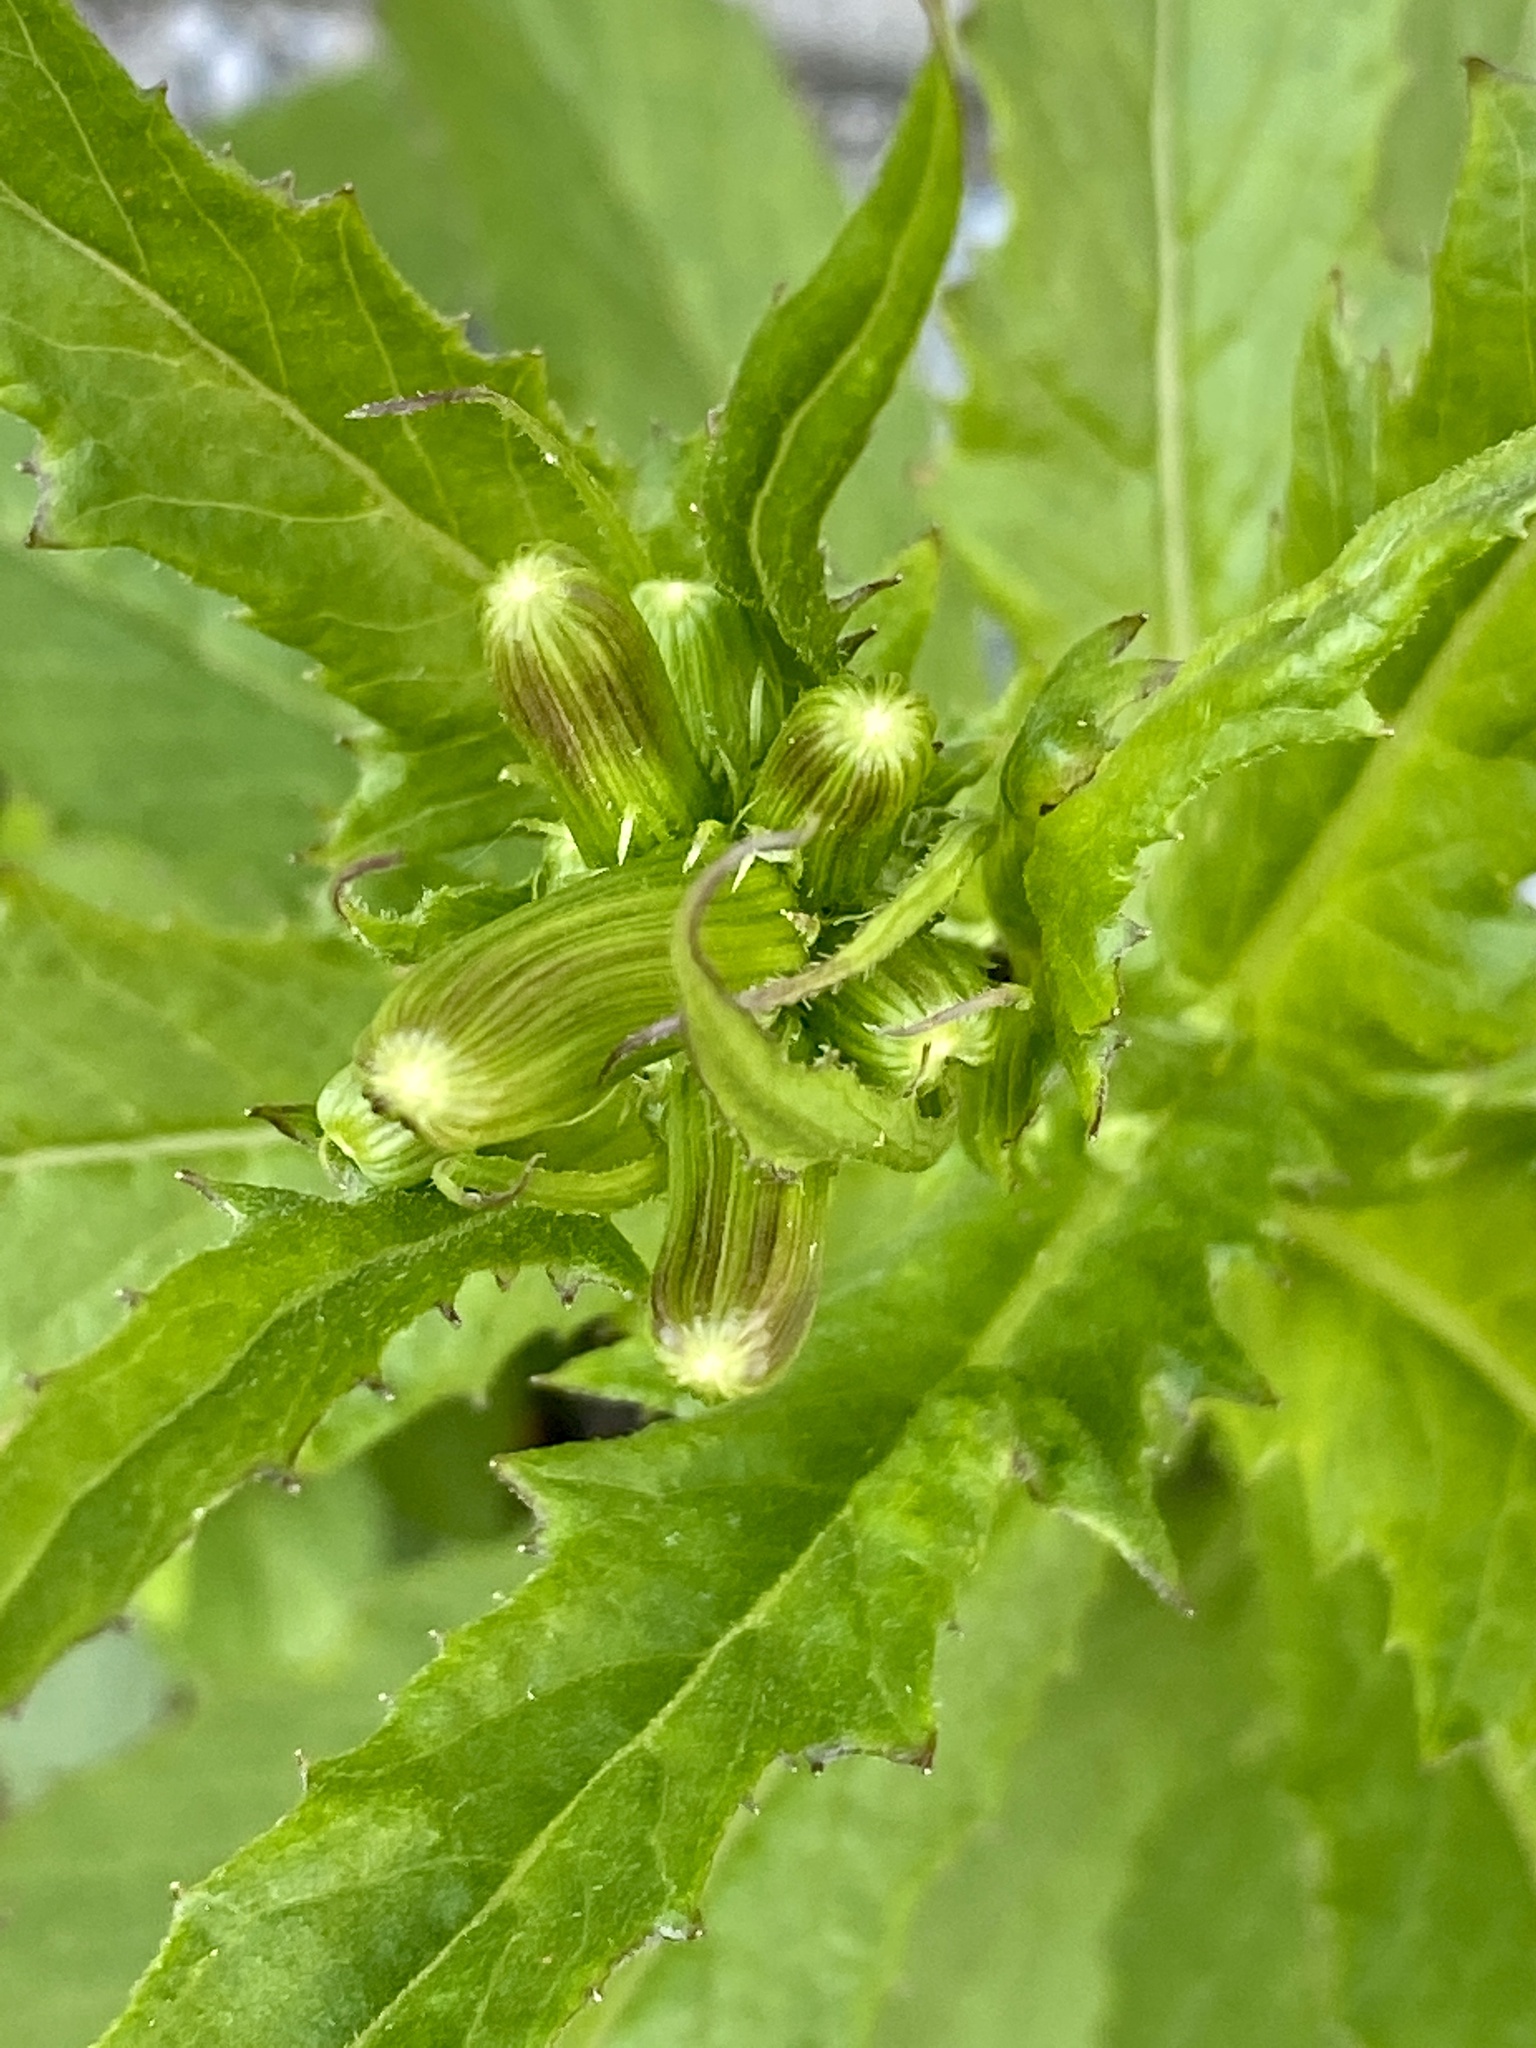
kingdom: Plantae
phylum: Tracheophyta
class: Magnoliopsida
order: Asterales
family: Asteraceae
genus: Erechtites
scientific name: Erechtites hieraciifolius
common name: American burnweed
